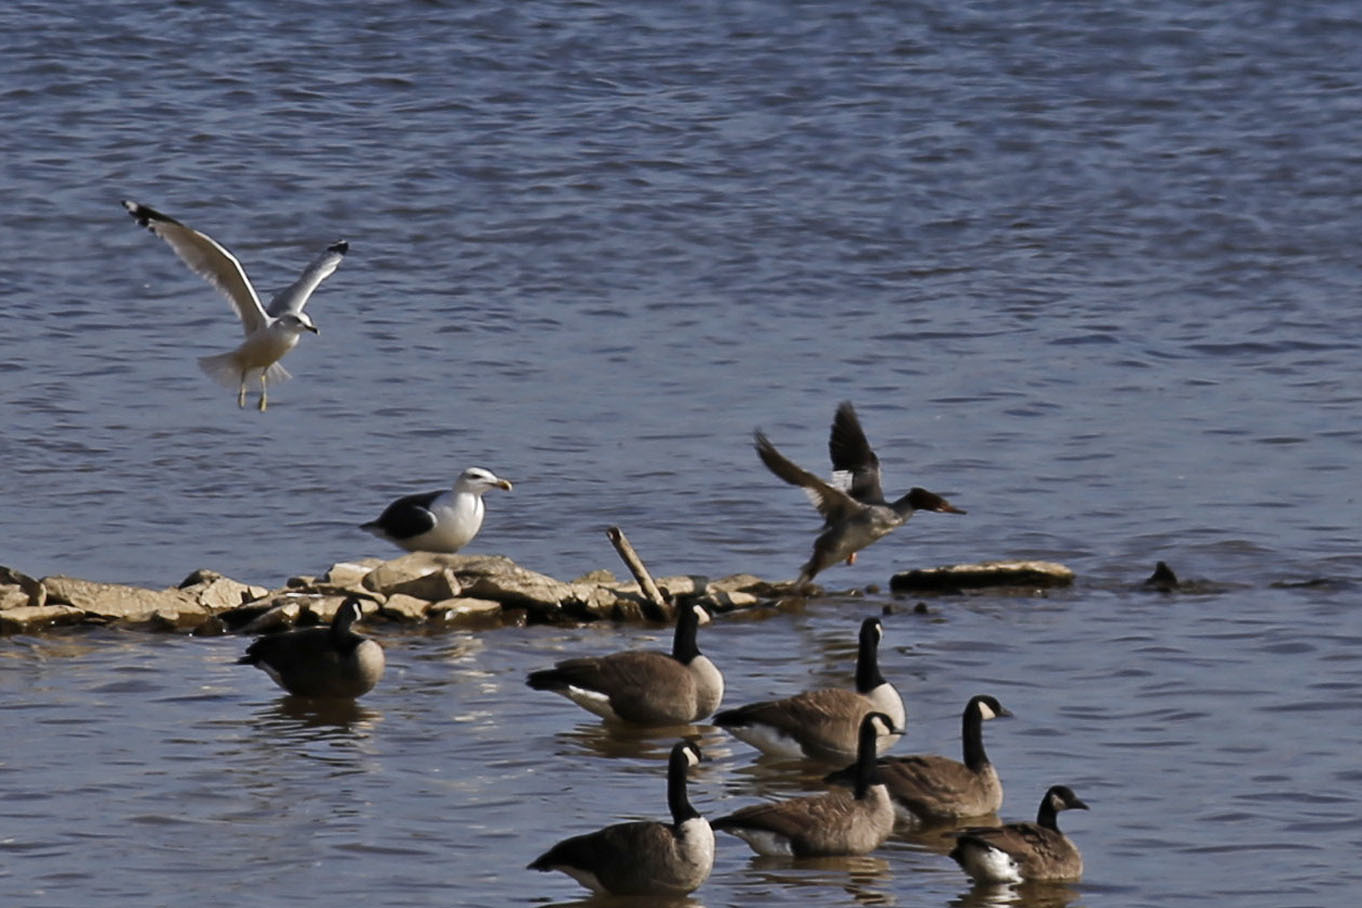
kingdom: Animalia
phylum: Chordata
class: Aves
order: Anseriformes
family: Anatidae
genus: Mergus
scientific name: Mergus merganser
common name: Common merganser
